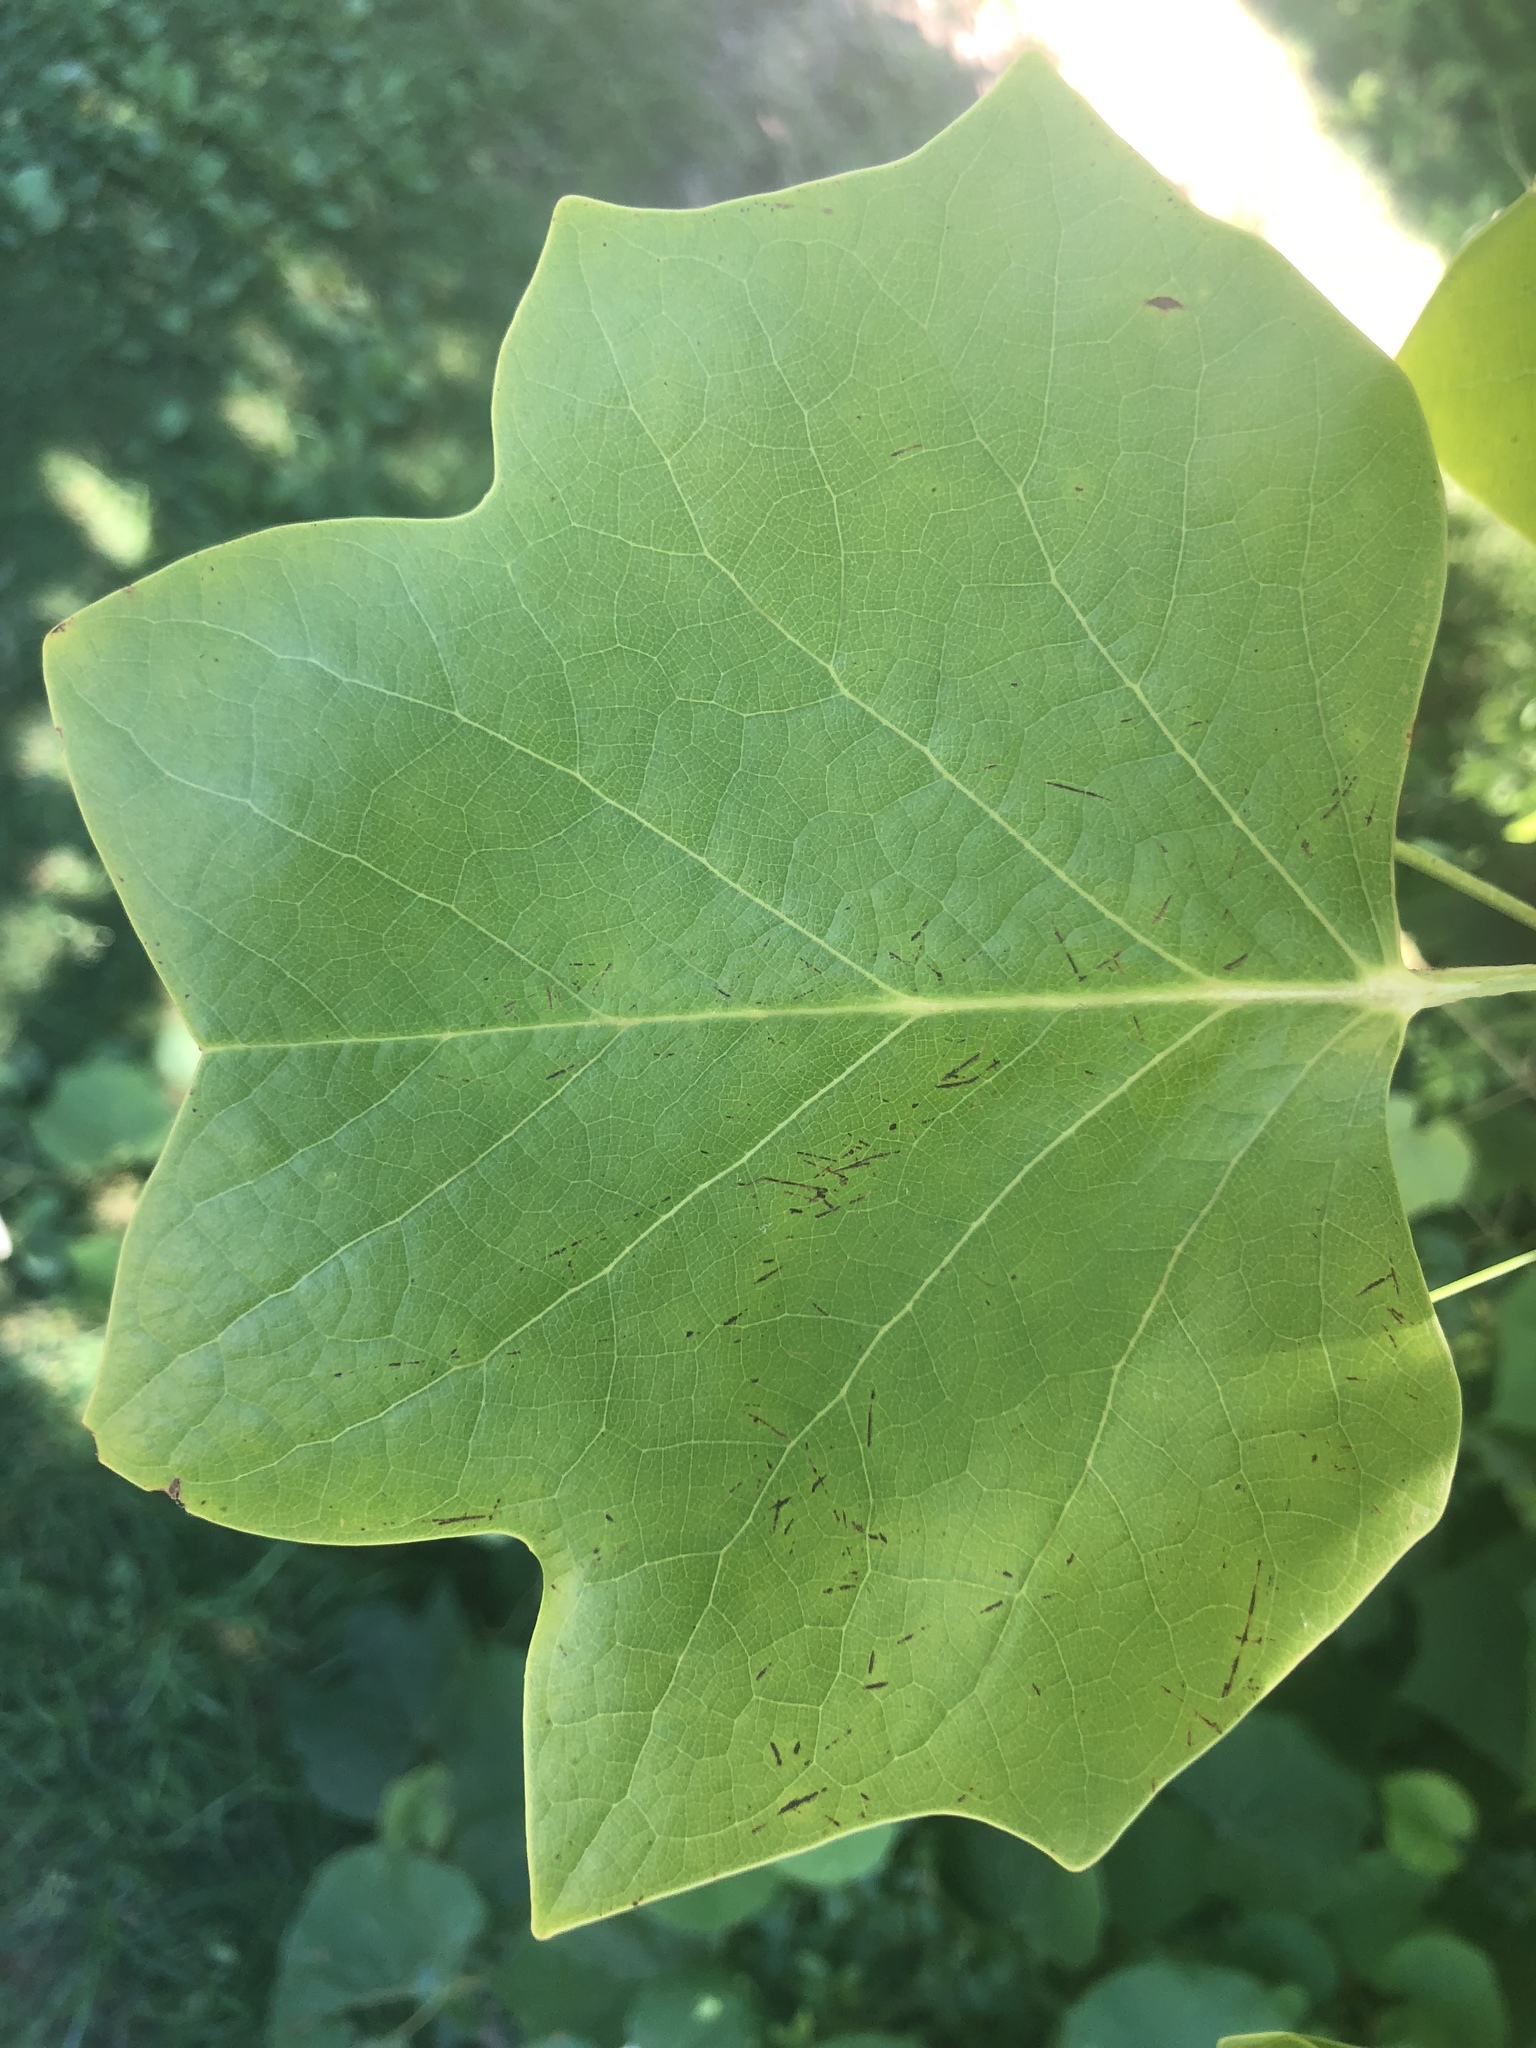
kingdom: Plantae
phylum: Tracheophyta
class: Magnoliopsida
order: Magnoliales
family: Magnoliaceae
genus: Liriodendron
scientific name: Liriodendron tulipifera
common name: Tulip tree
